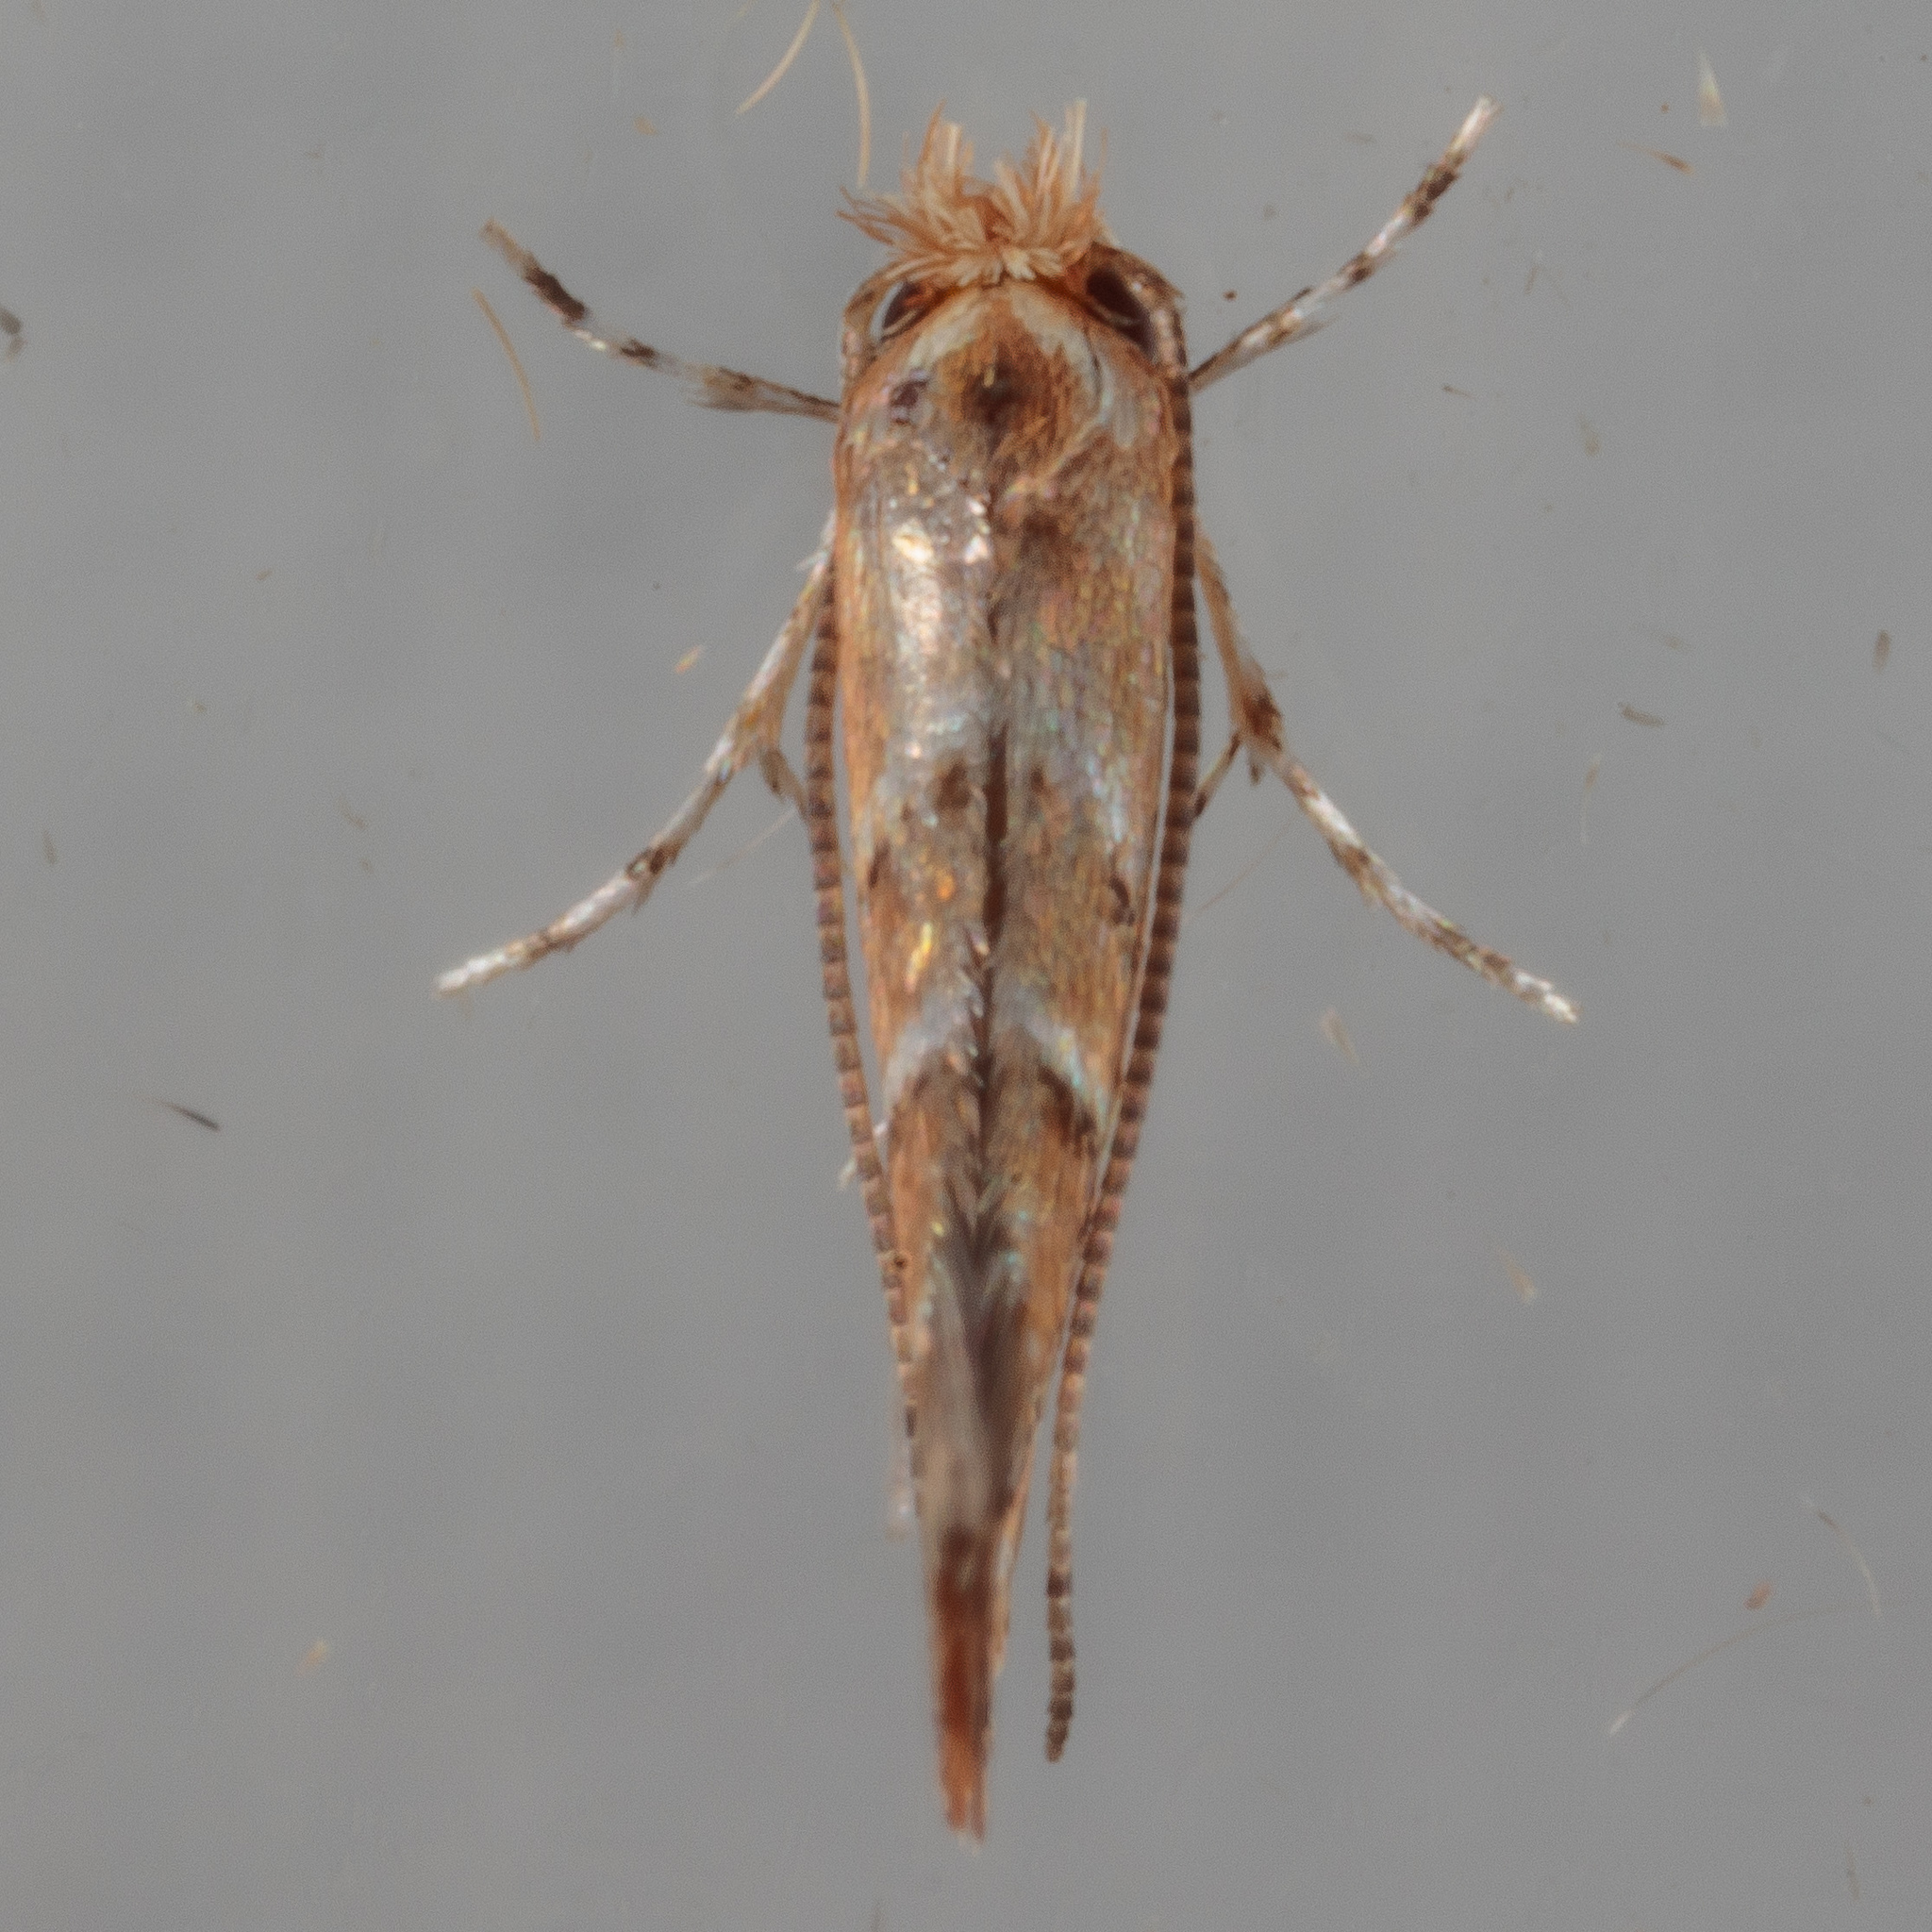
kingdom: Animalia
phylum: Arthropoda
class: Insecta
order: Lepidoptera
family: Gracillariidae
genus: Cameraria
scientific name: Cameraria caryaefoliella
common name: Pecan leafminer moth
